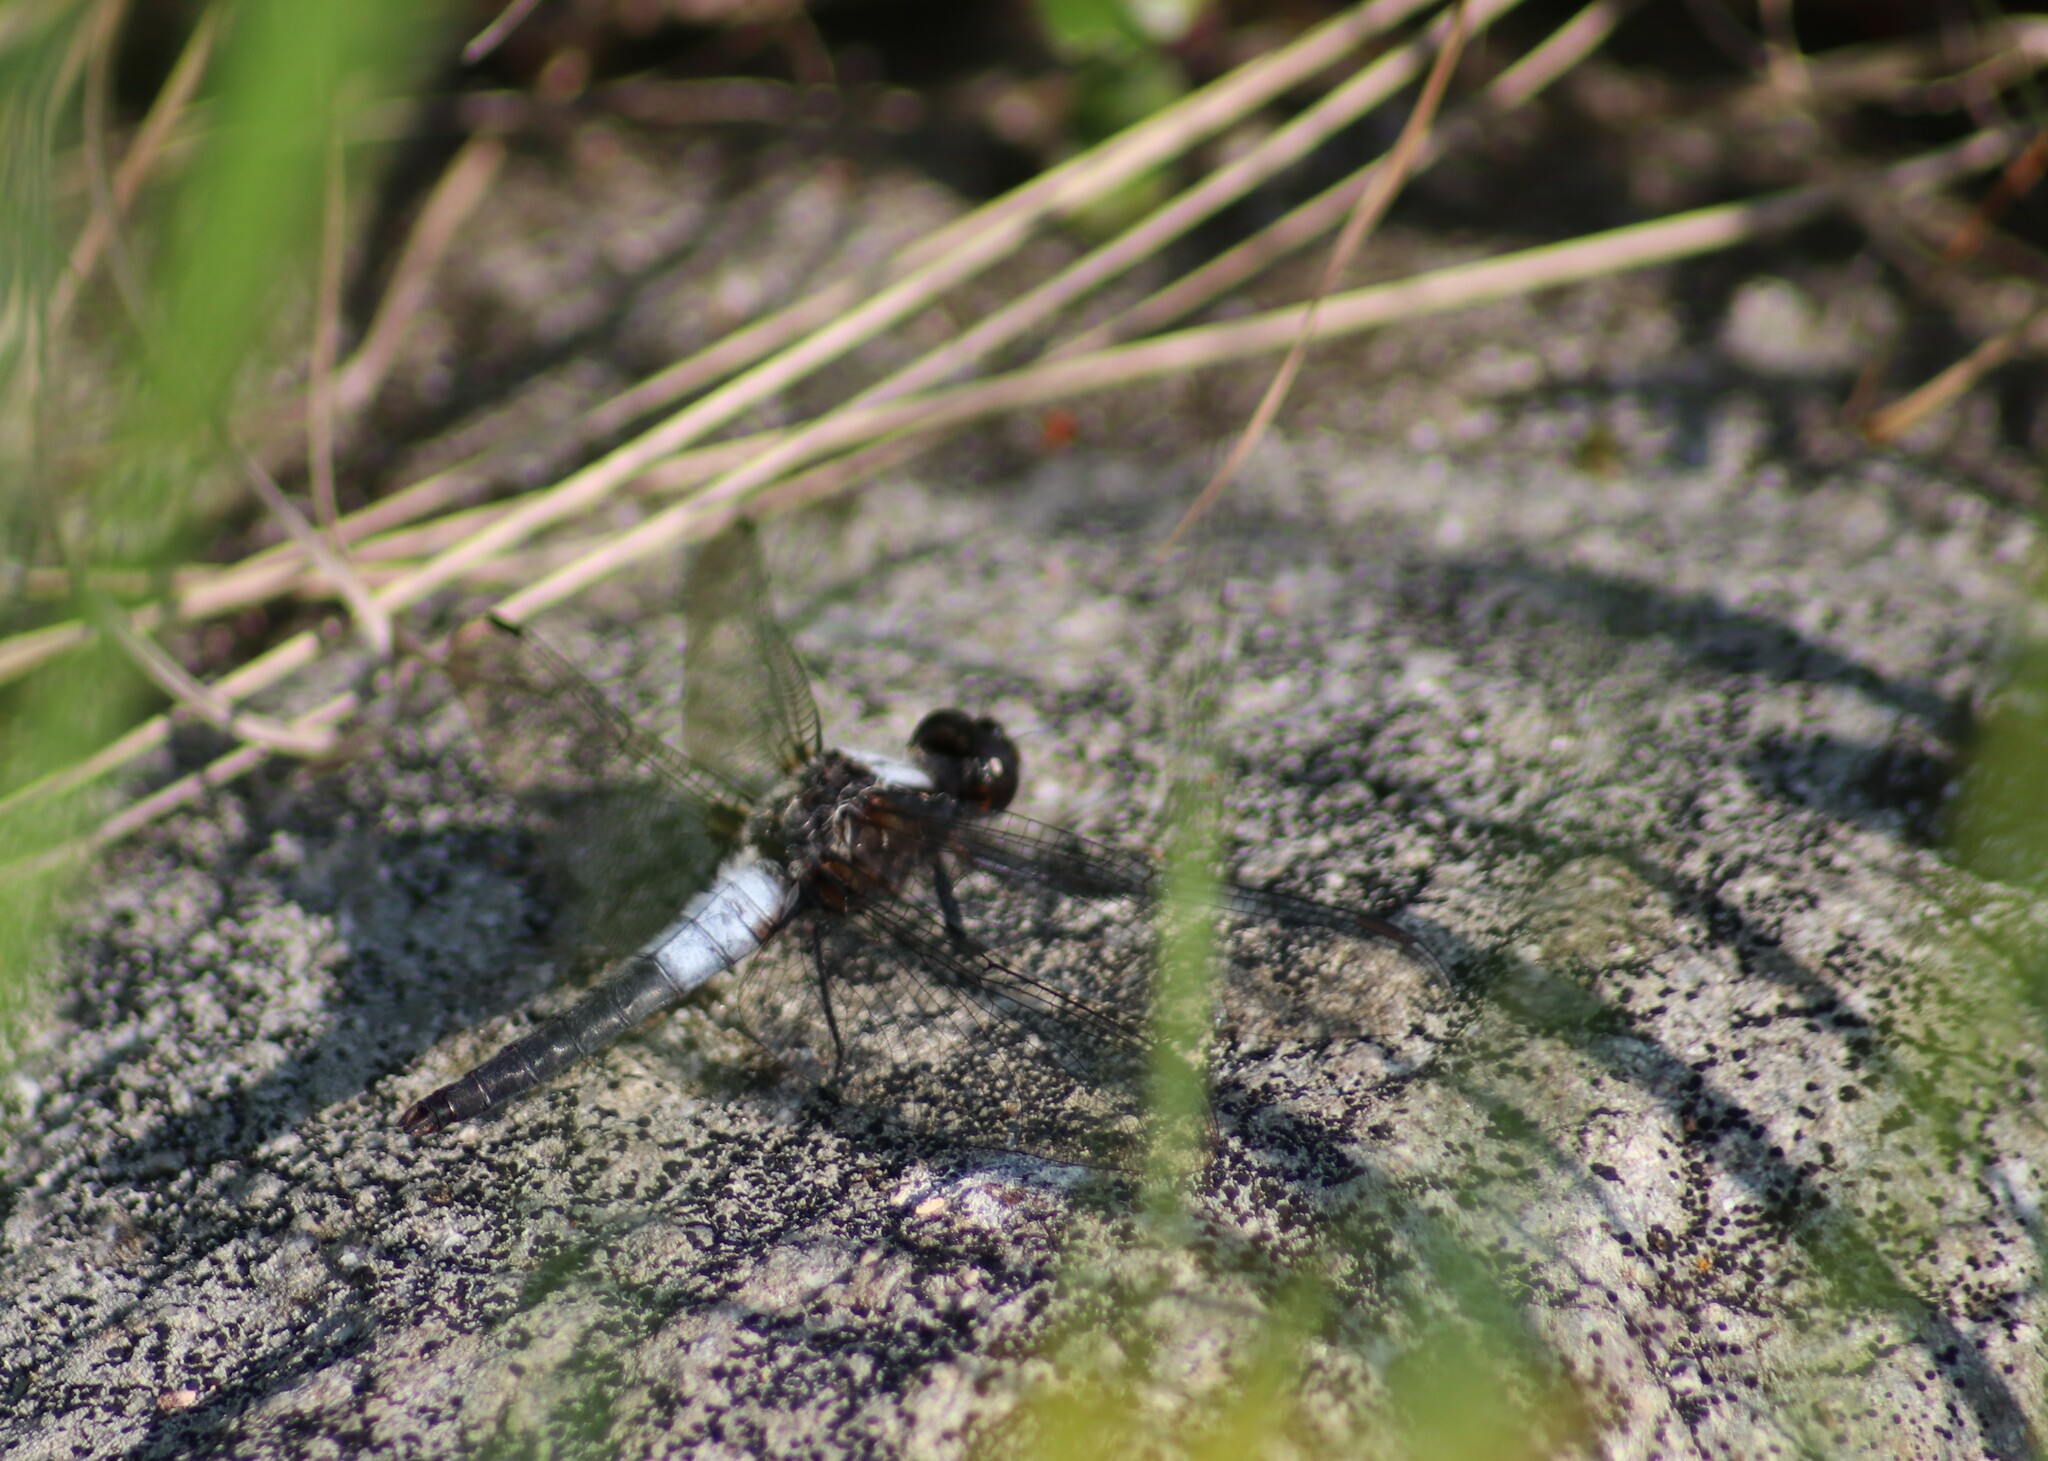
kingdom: Animalia
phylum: Arthropoda
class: Insecta
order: Odonata
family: Libellulidae
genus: Ladona
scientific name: Ladona julia
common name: Chalk-fronted corporal
